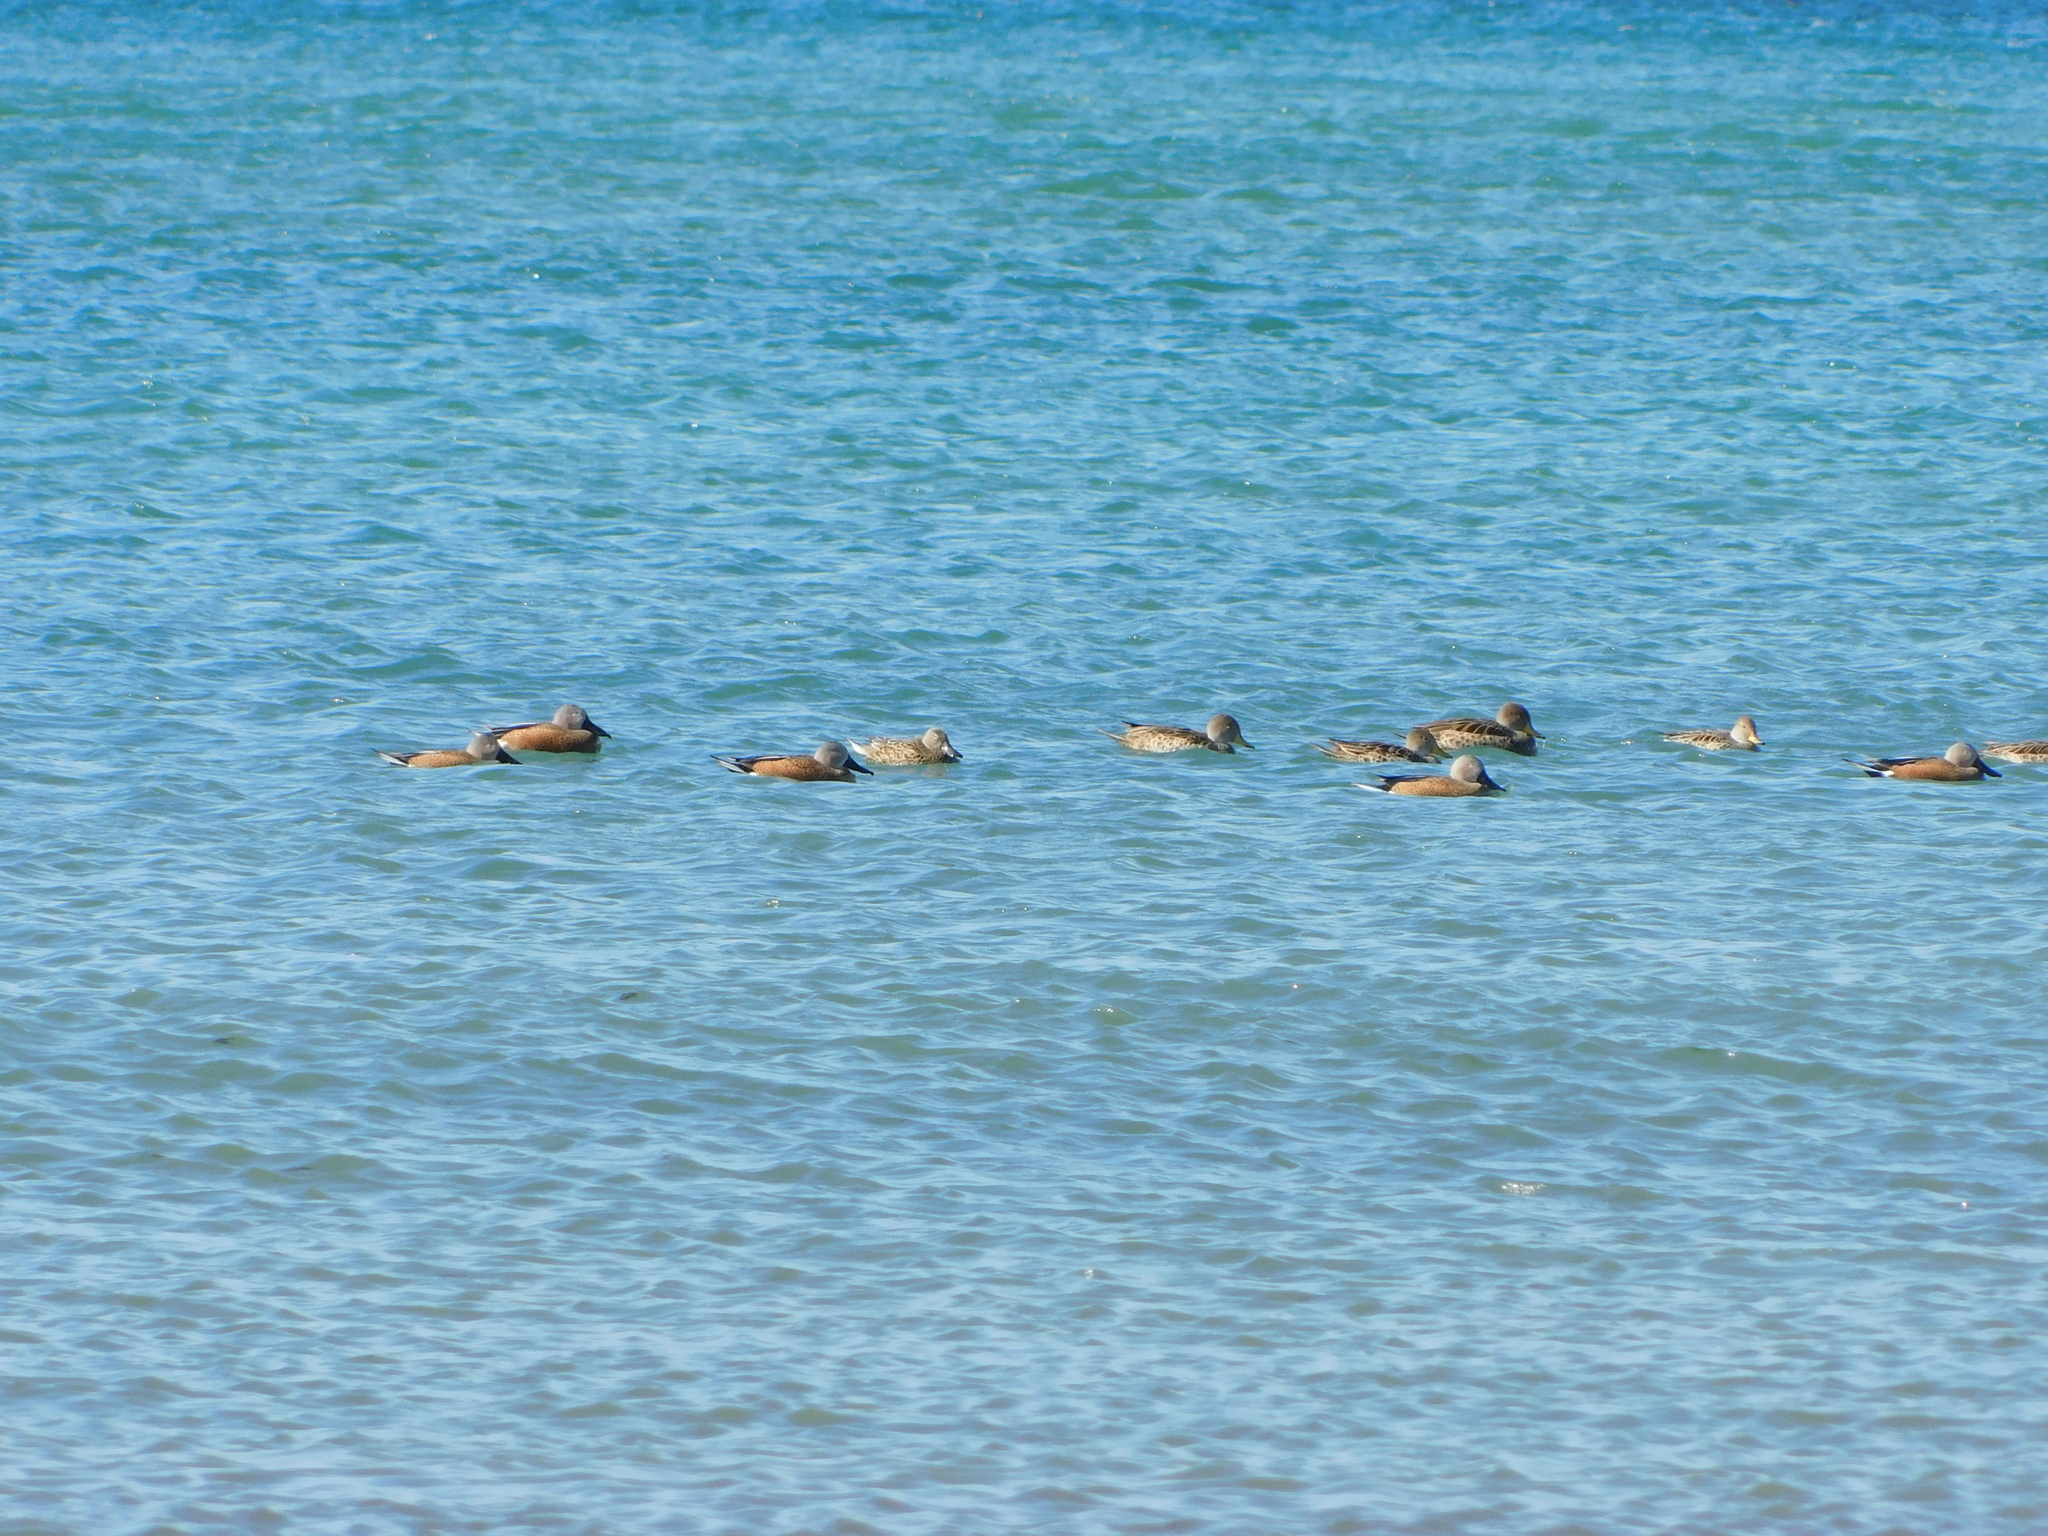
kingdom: Animalia
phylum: Chordata
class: Aves
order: Anseriformes
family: Anatidae
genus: Spatula
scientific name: Spatula platalea
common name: Red shoveler
